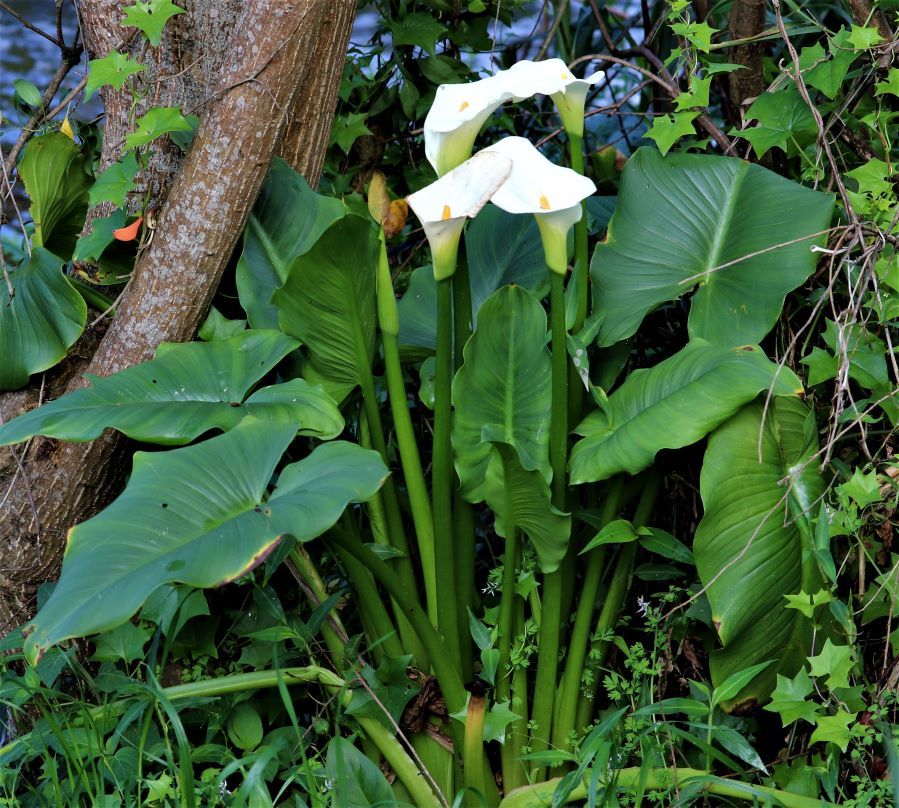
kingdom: Plantae
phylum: Tracheophyta
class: Liliopsida
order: Alismatales
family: Araceae
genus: Zantedeschia
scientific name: Zantedeschia aethiopica
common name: Altar-lily
